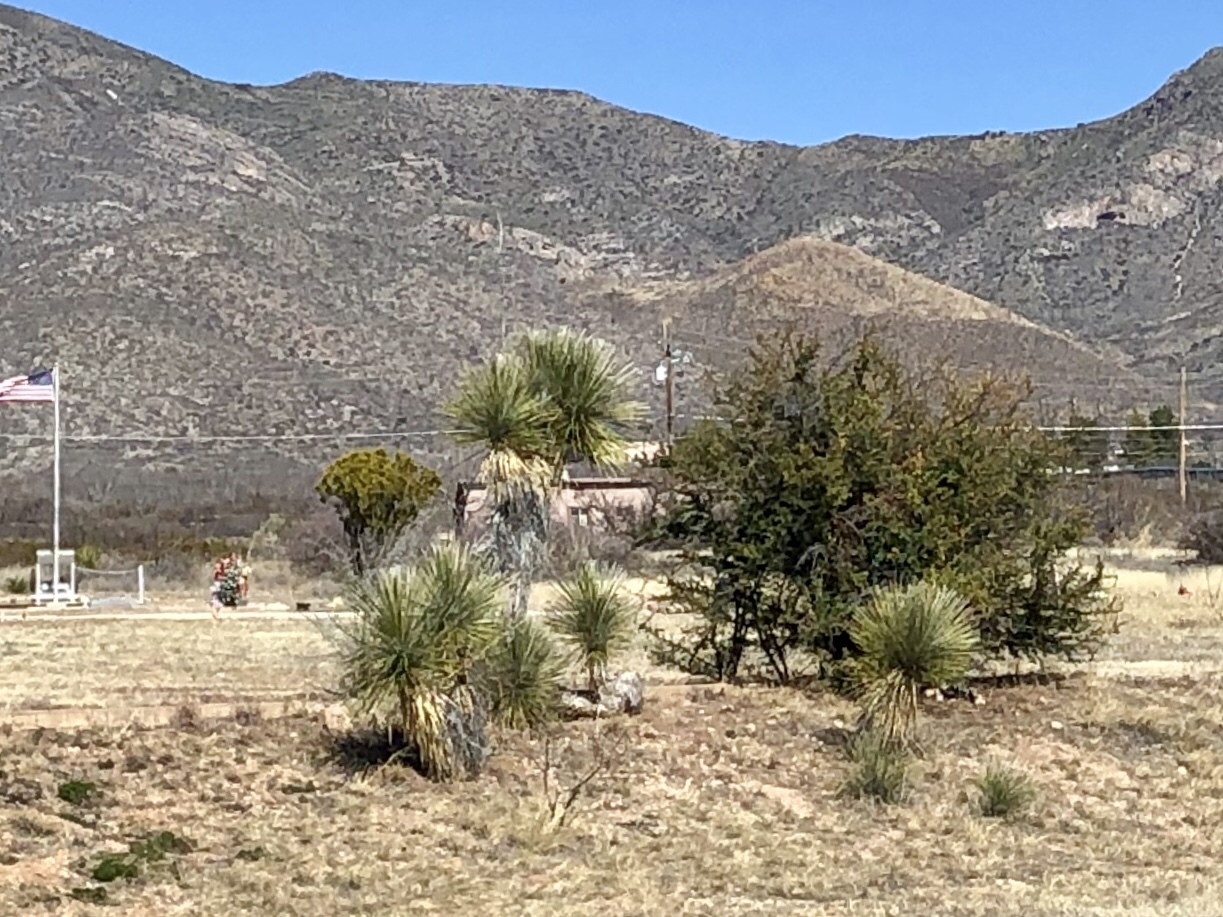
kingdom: Plantae
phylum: Tracheophyta
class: Liliopsida
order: Asparagales
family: Asparagaceae
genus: Yucca
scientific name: Yucca elata
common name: Palmella
